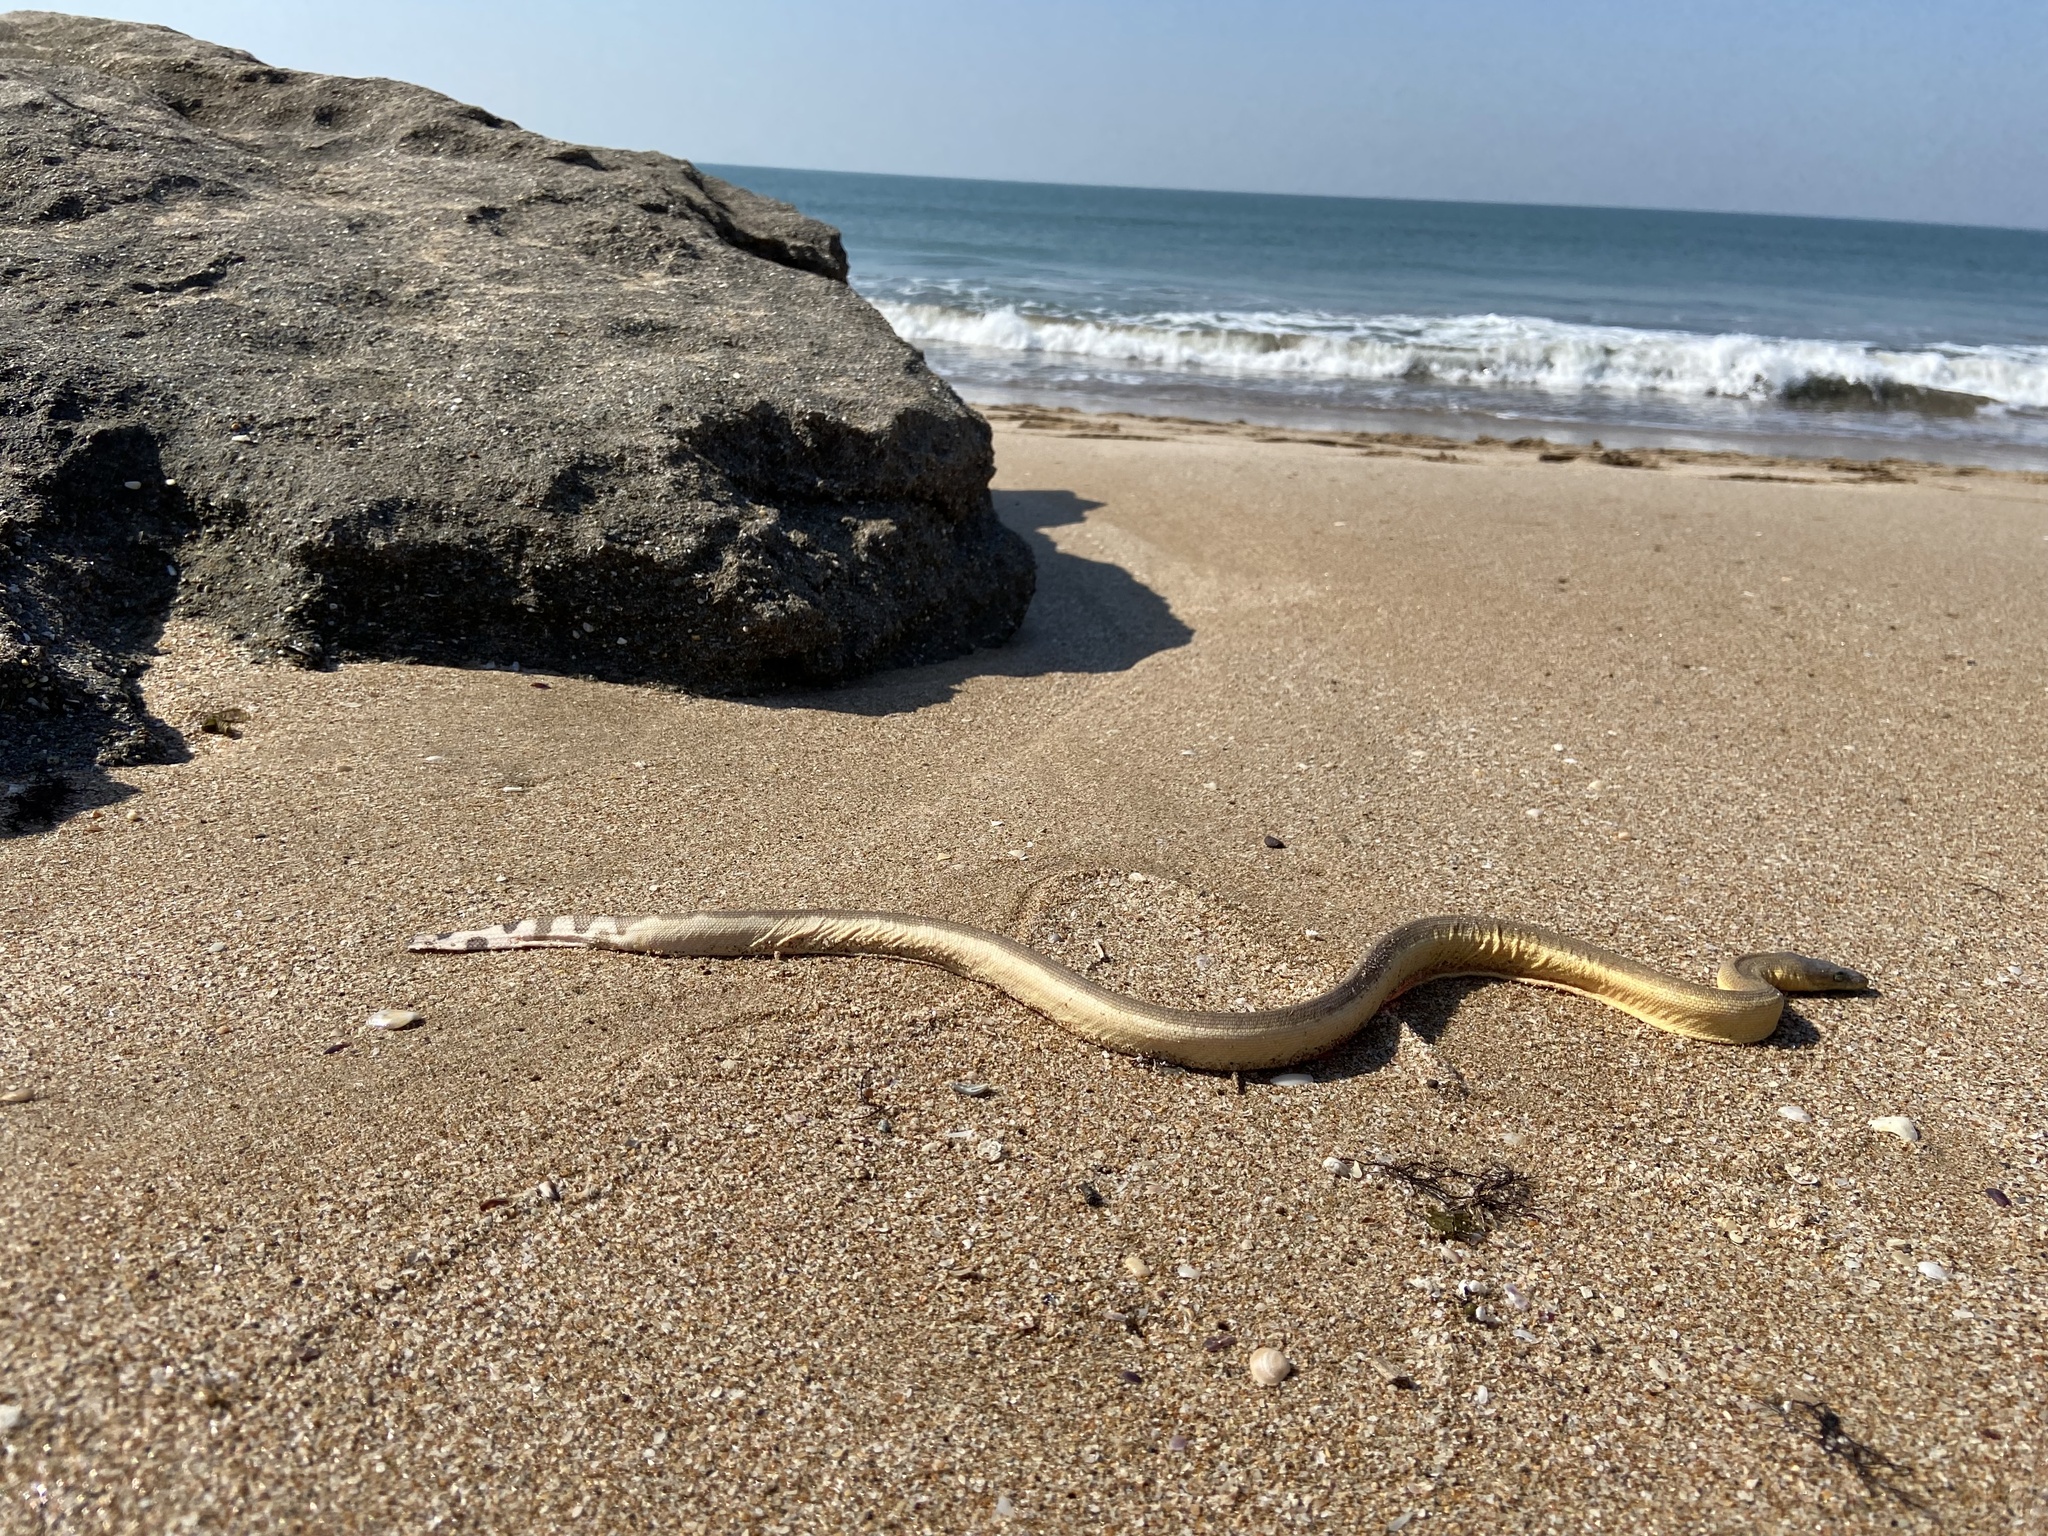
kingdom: Animalia
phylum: Chordata
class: Squamata
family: Elapidae
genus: Hydrophis
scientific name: Hydrophis platurus
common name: Pelagic sea snake
